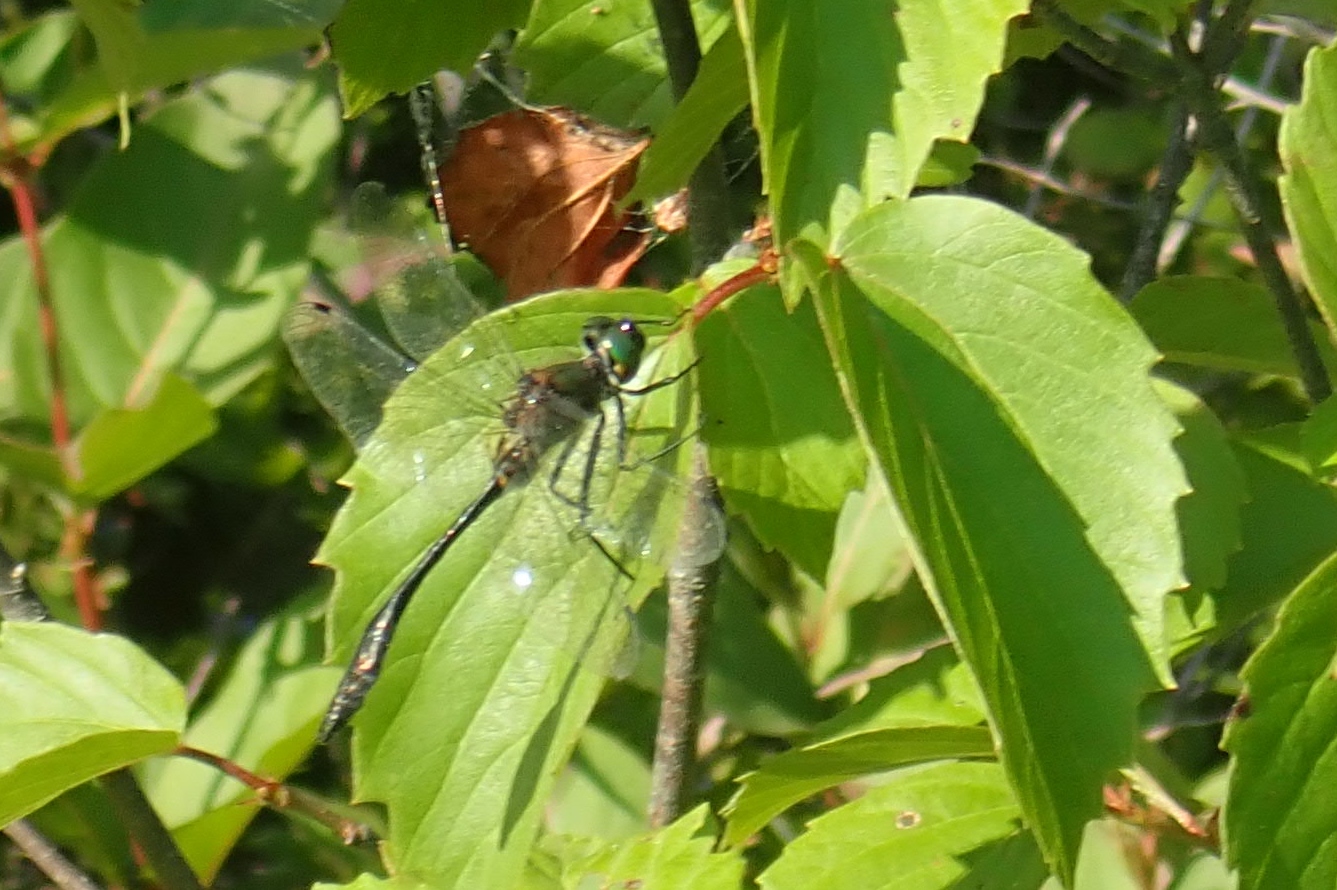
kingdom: Animalia
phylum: Arthropoda
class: Insecta
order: Odonata
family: Corduliidae
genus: Dorocordulia
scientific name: Dorocordulia libera
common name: Racket-tailed emerald
